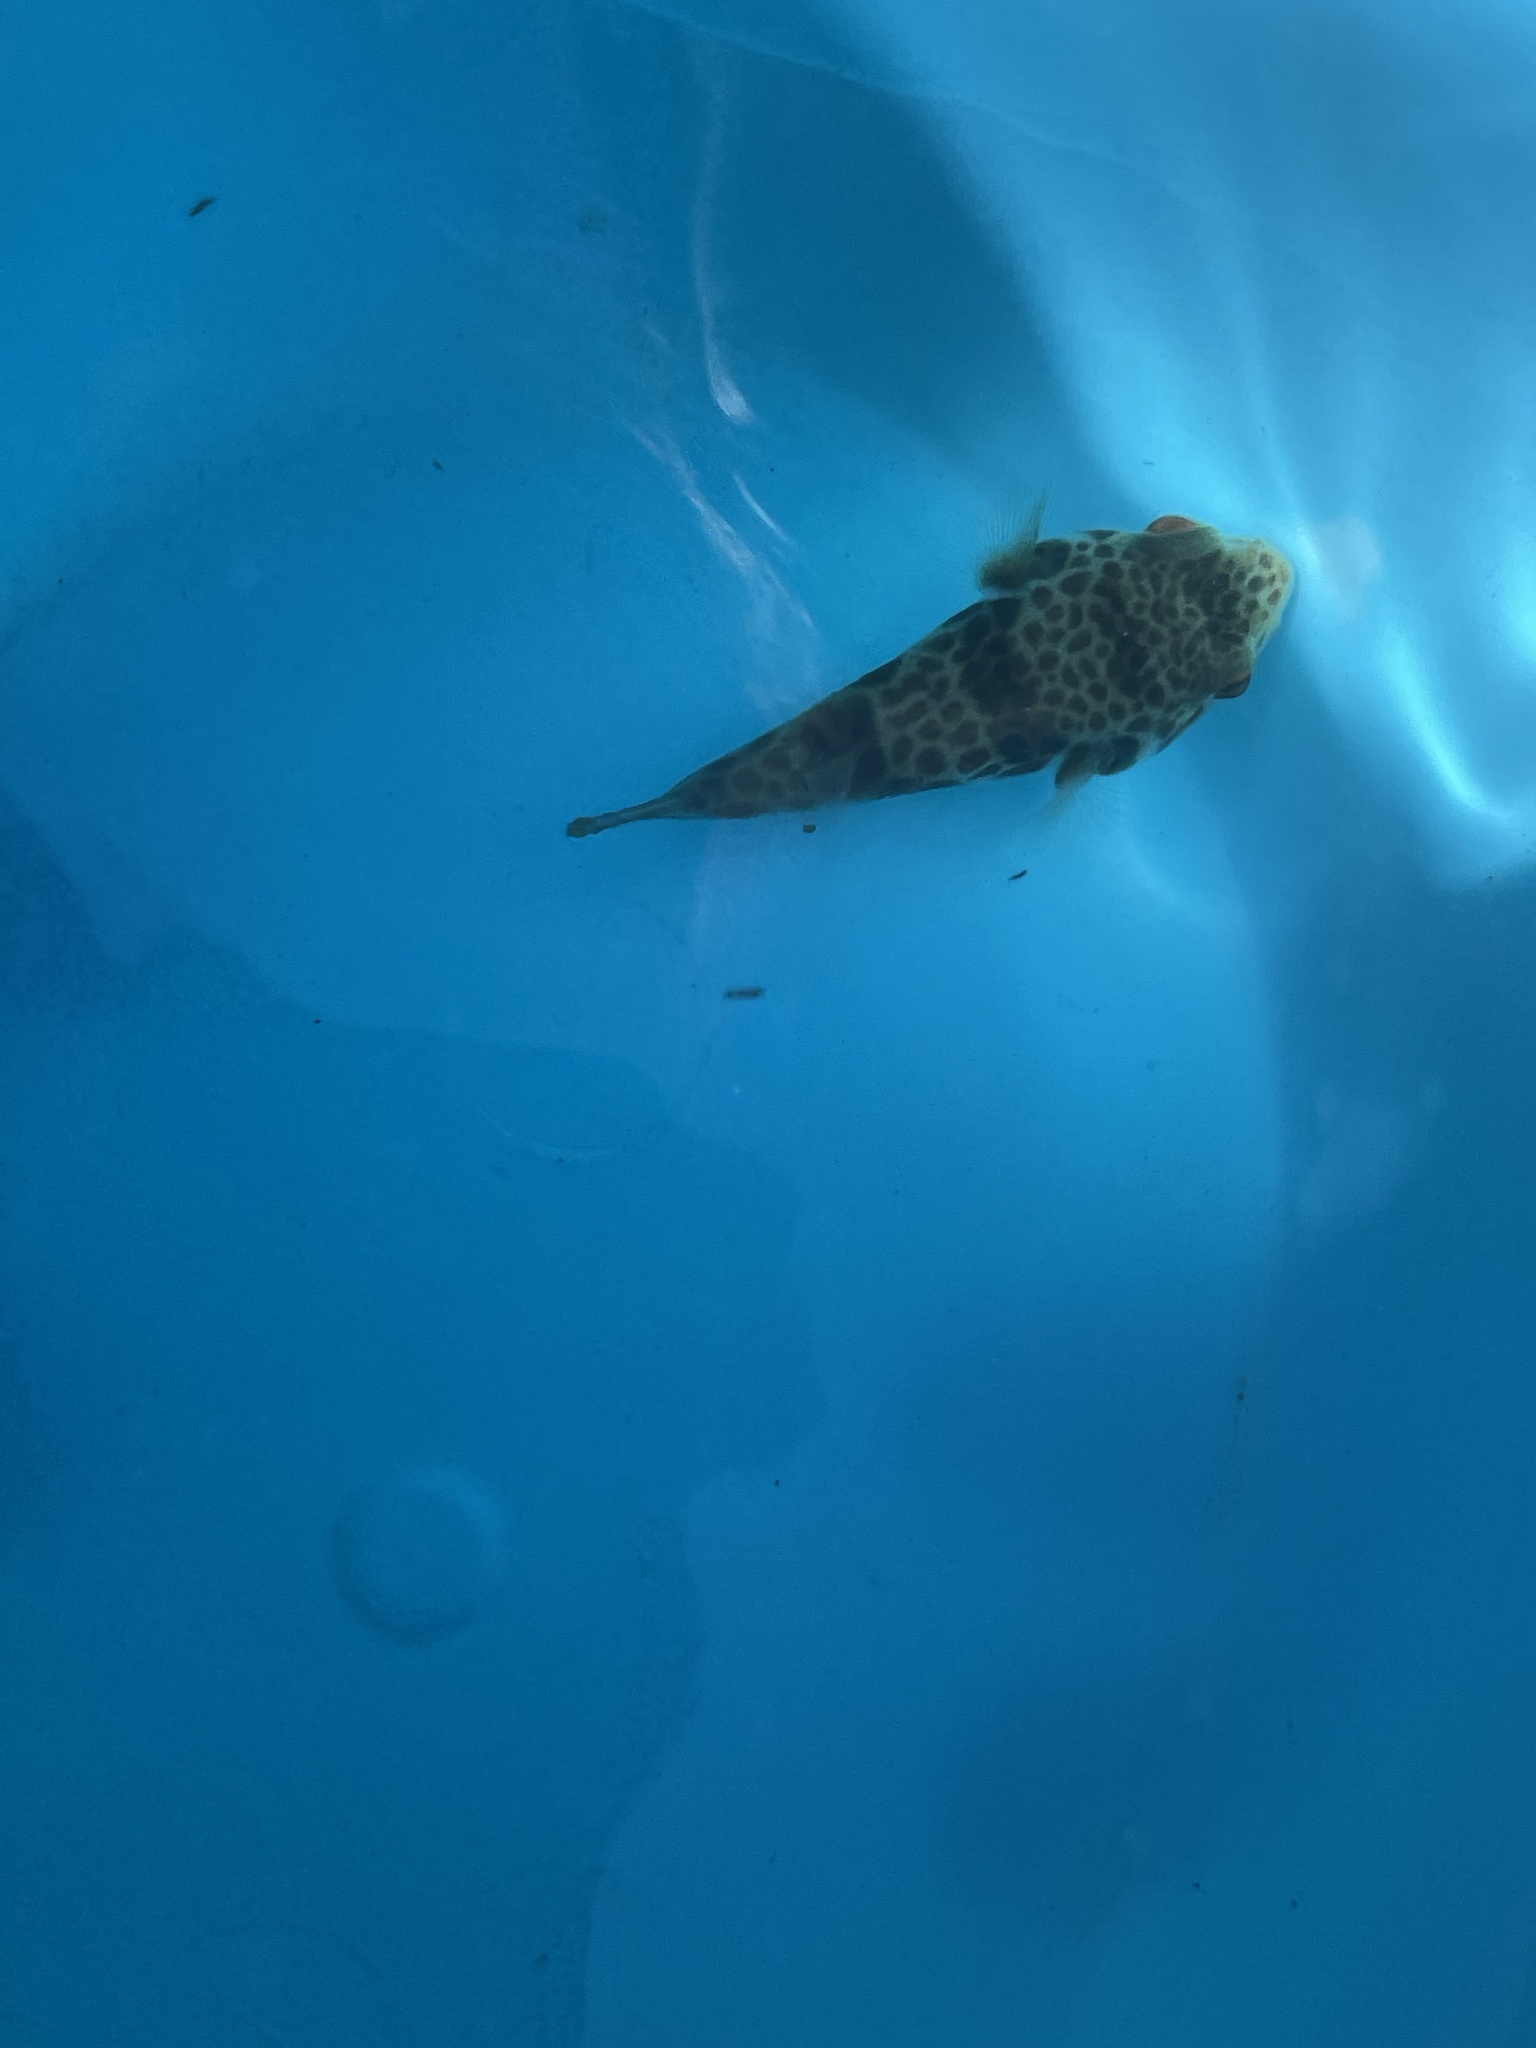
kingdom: Animalia
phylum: Chordata
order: Tetraodontiformes
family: Tetraodontidae
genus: Tetractenos
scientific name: Tetractenos glaber
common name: Smooth toadfish
